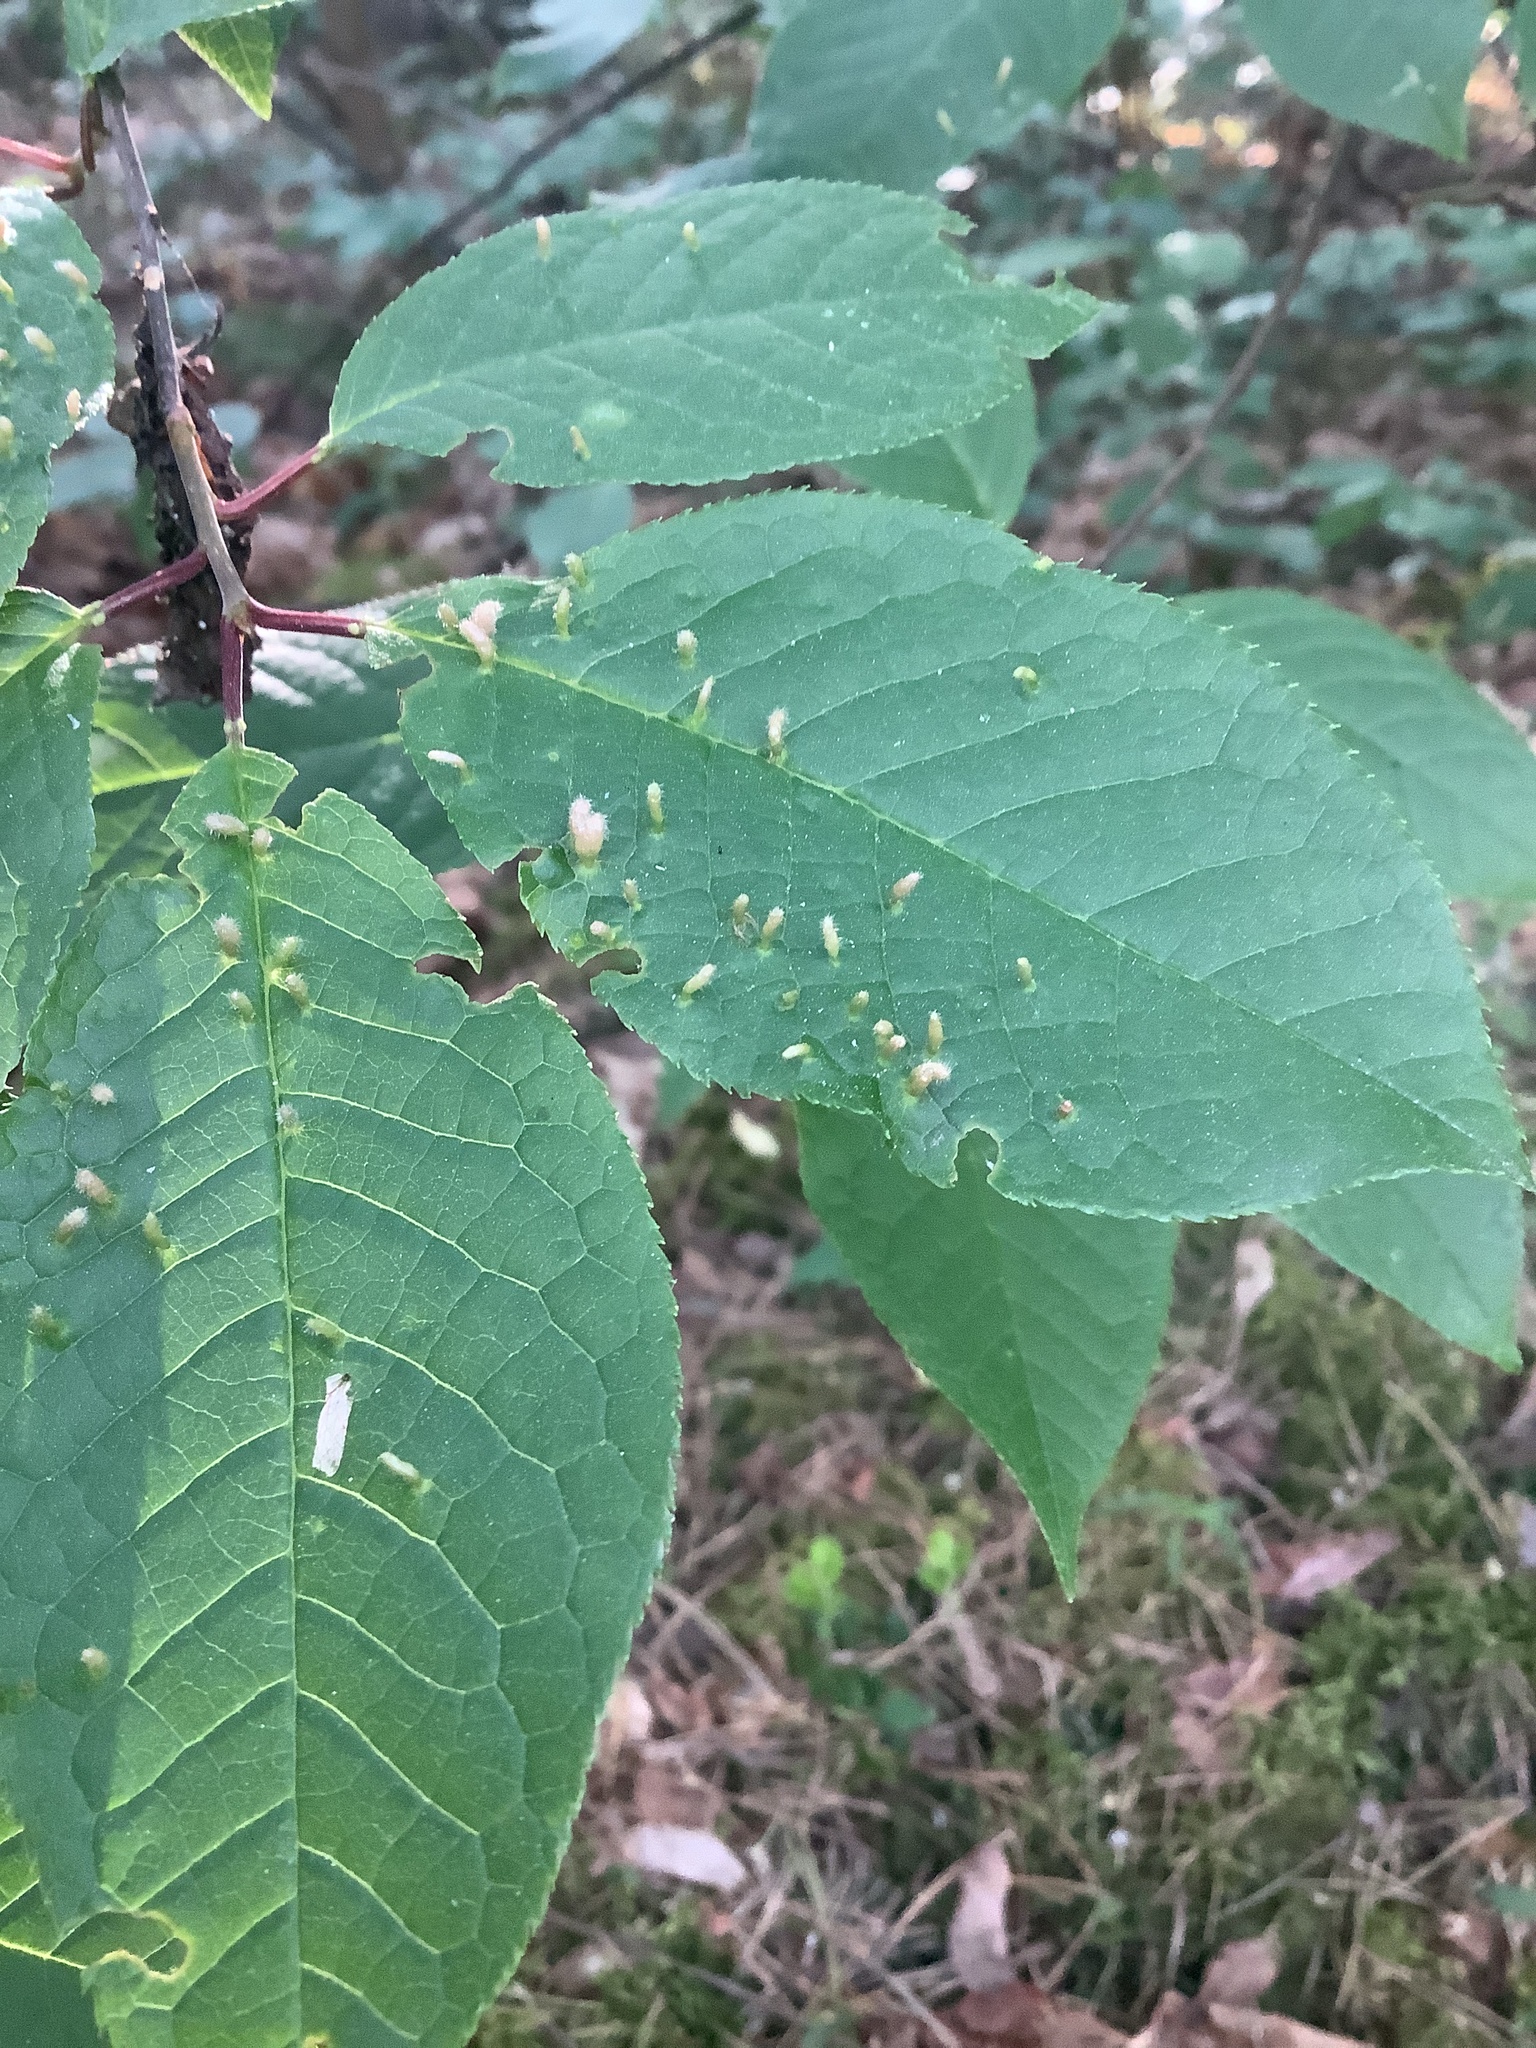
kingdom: Animalia
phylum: Arthropoda
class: Arachnida
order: Trombidiformes
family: Eriophyidae
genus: Phyllocoptes
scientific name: Phyllocoptes eupadi
